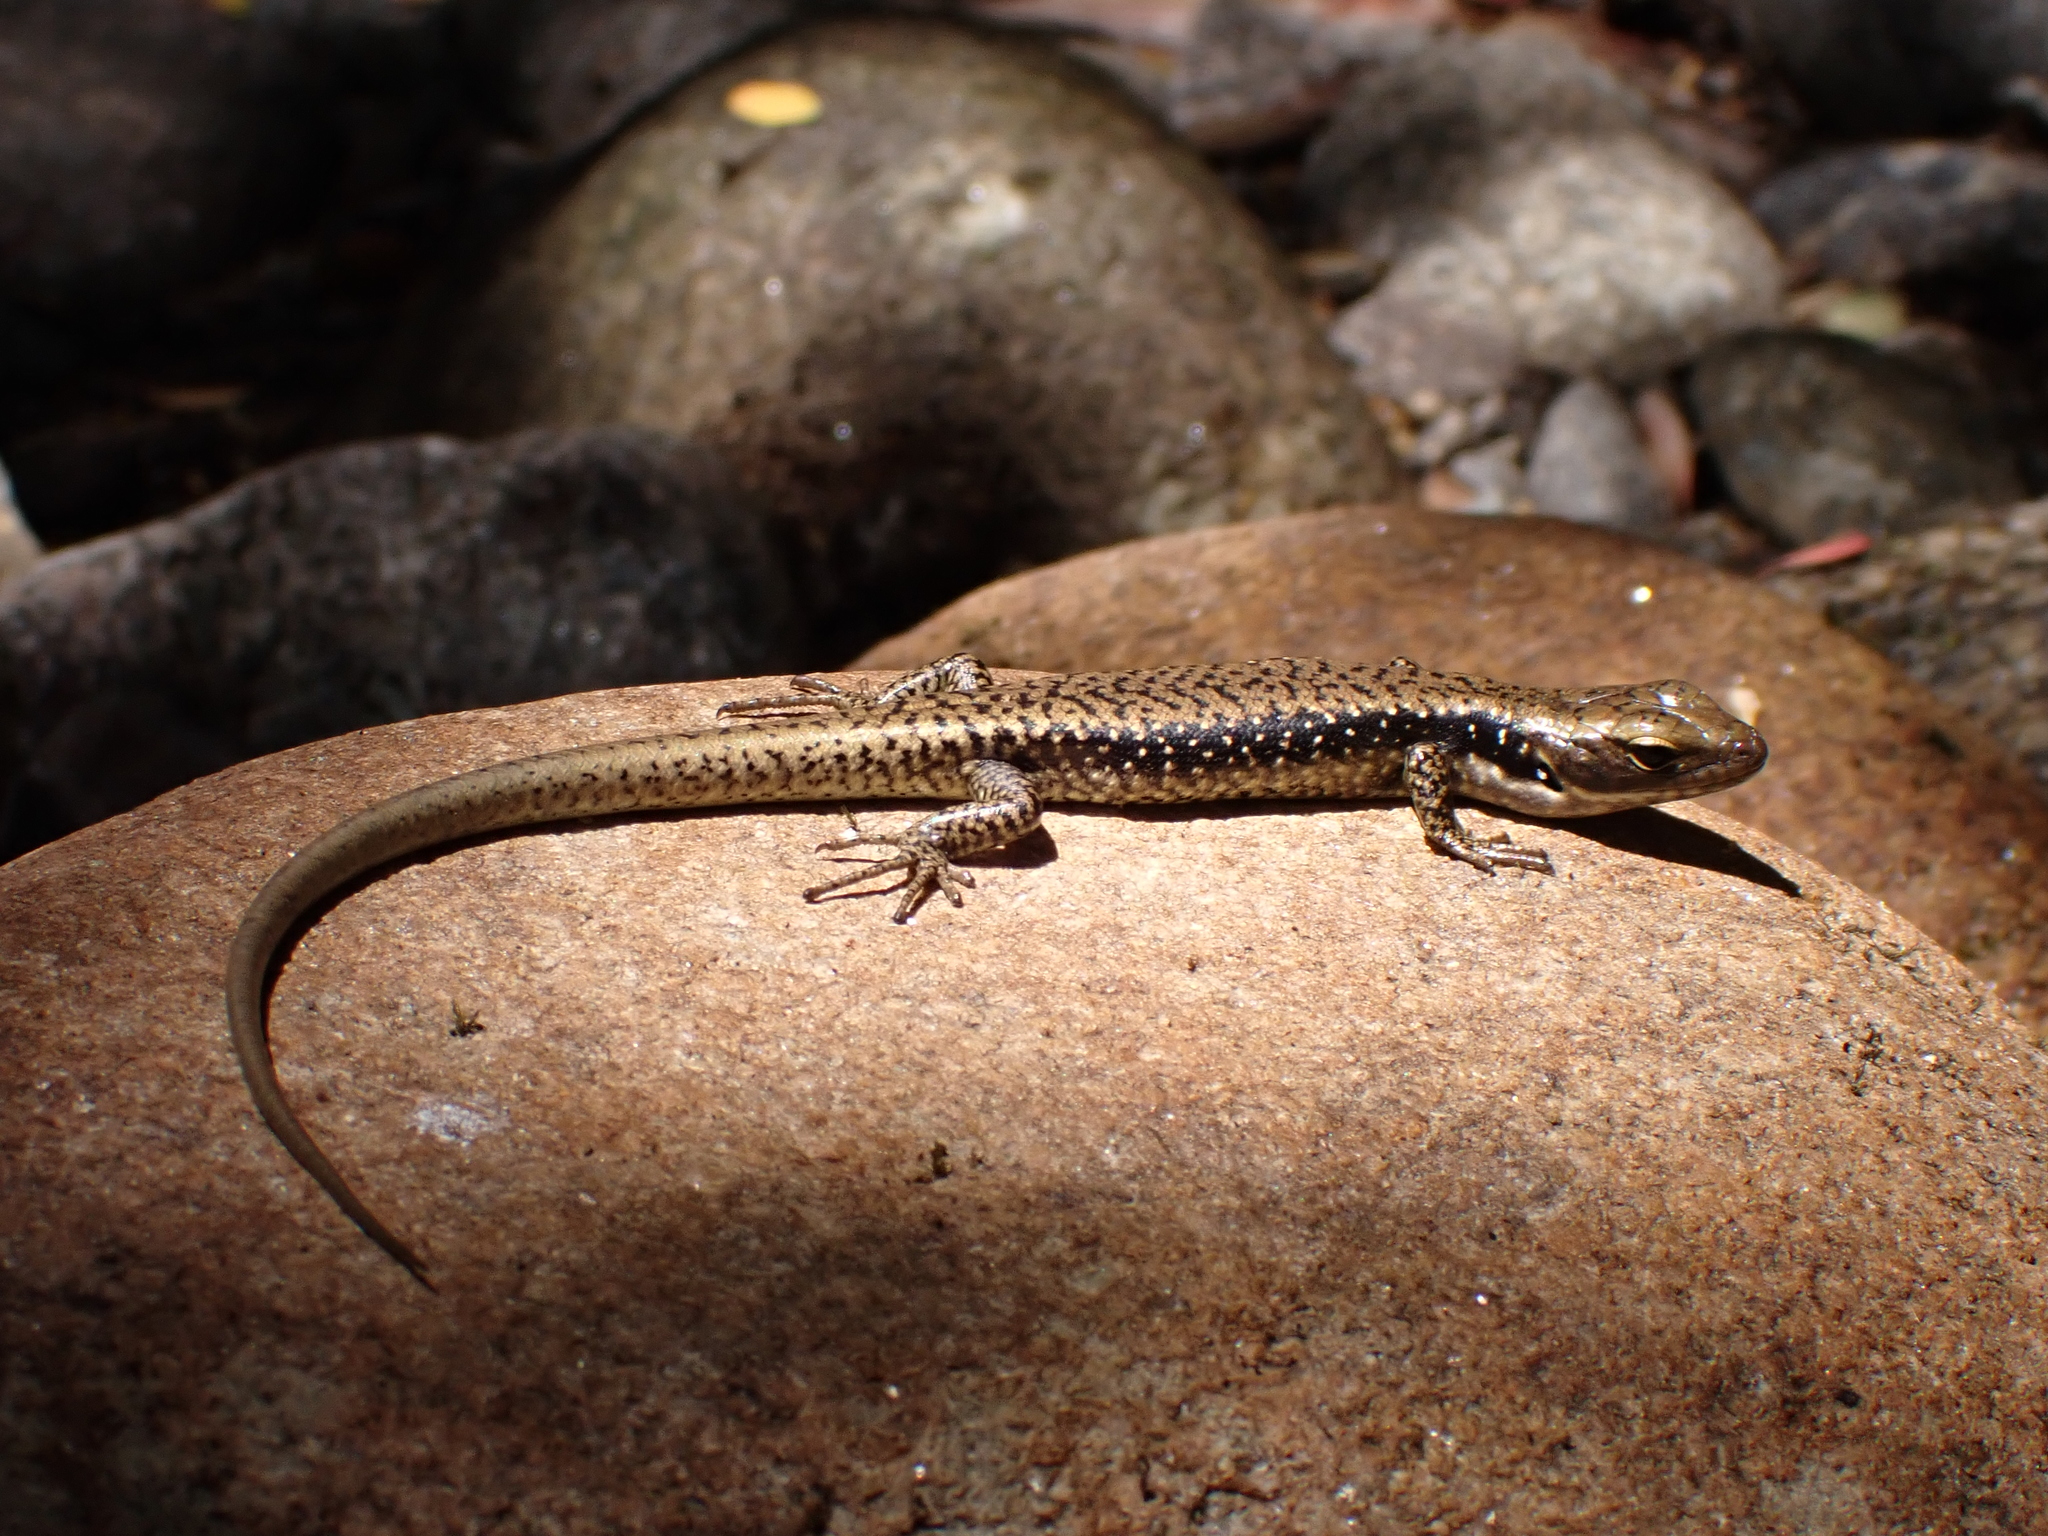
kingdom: Animalia
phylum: Chordata
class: Squamata
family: Scincidae
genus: Eulamprus
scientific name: Eulamprus tympanum
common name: Cool-temperate water-skink
